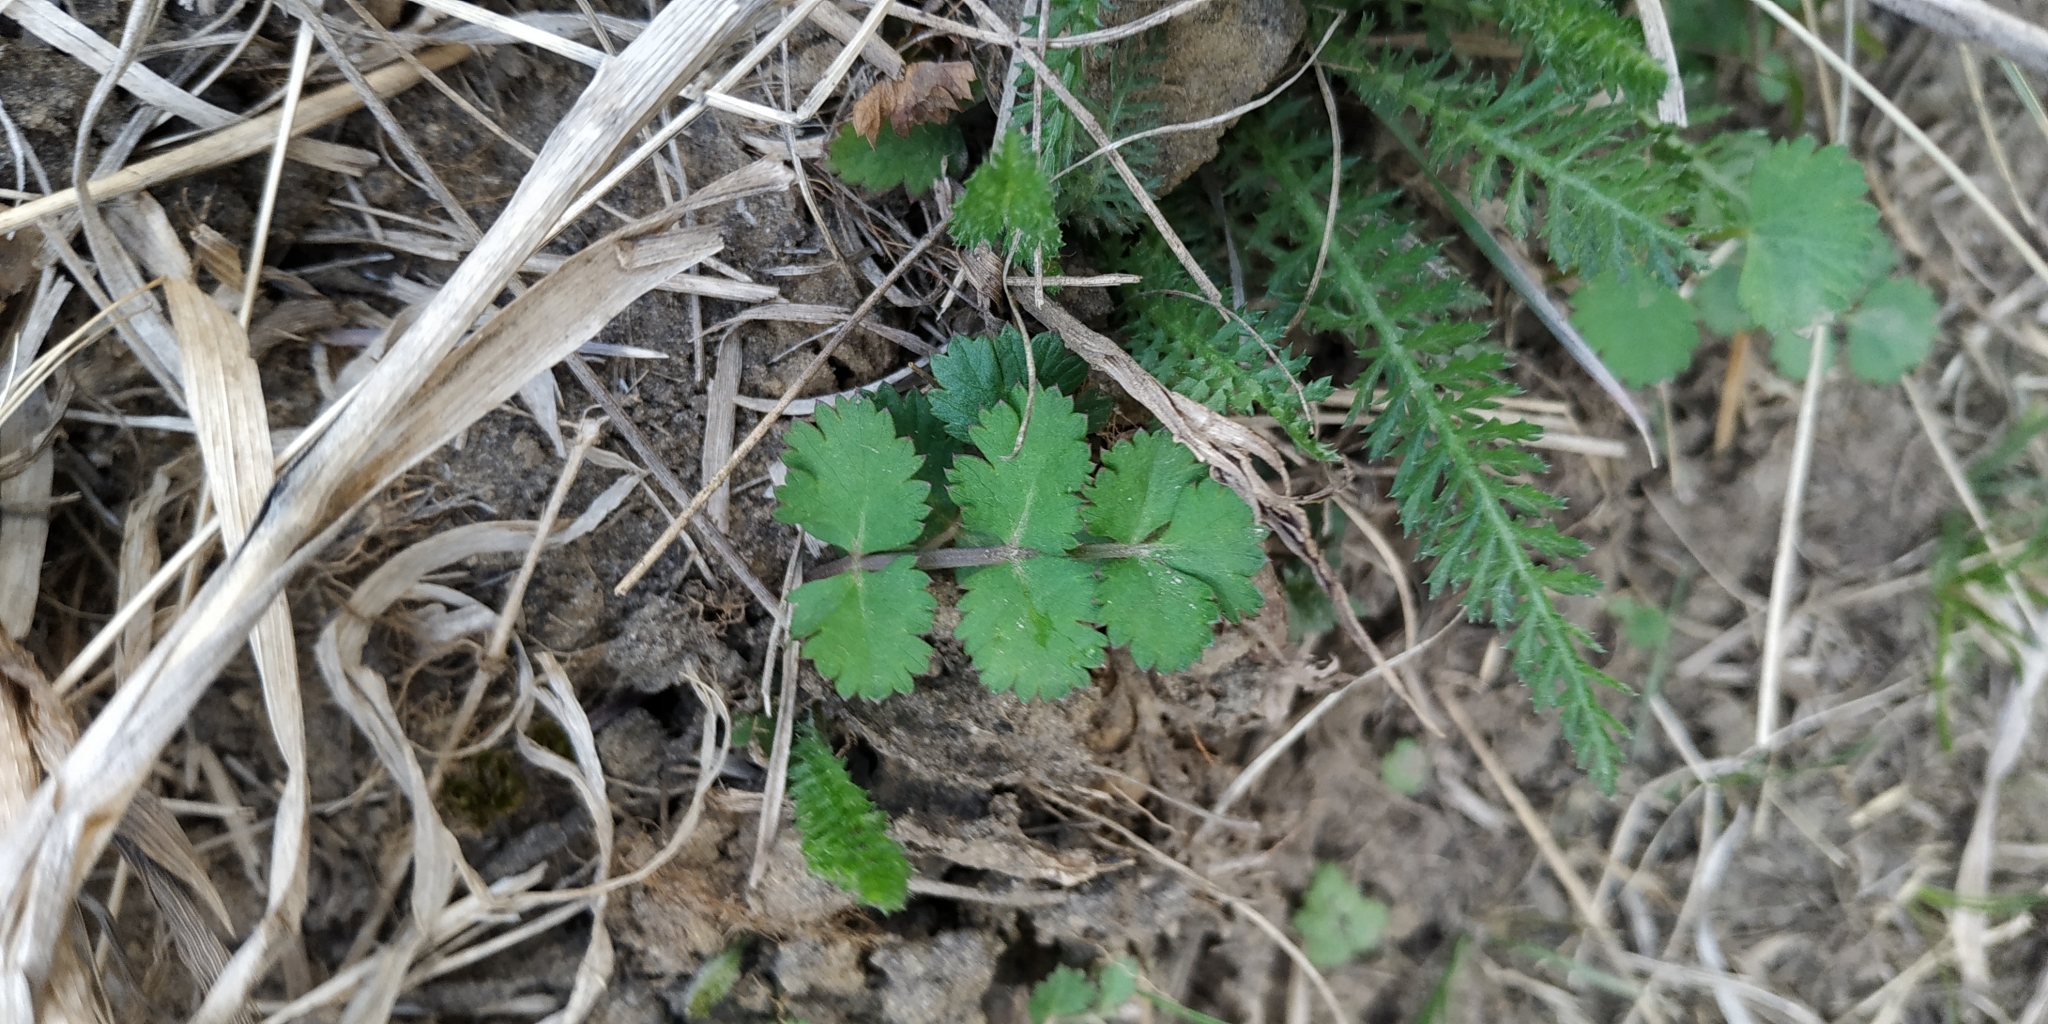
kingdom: Plantae
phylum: Tracheophyta
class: Magnoliopsida
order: Apiales
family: Apiaceae
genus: Pimpinella
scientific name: Pimpinella saxifraga
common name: Burnet-saxifrage
